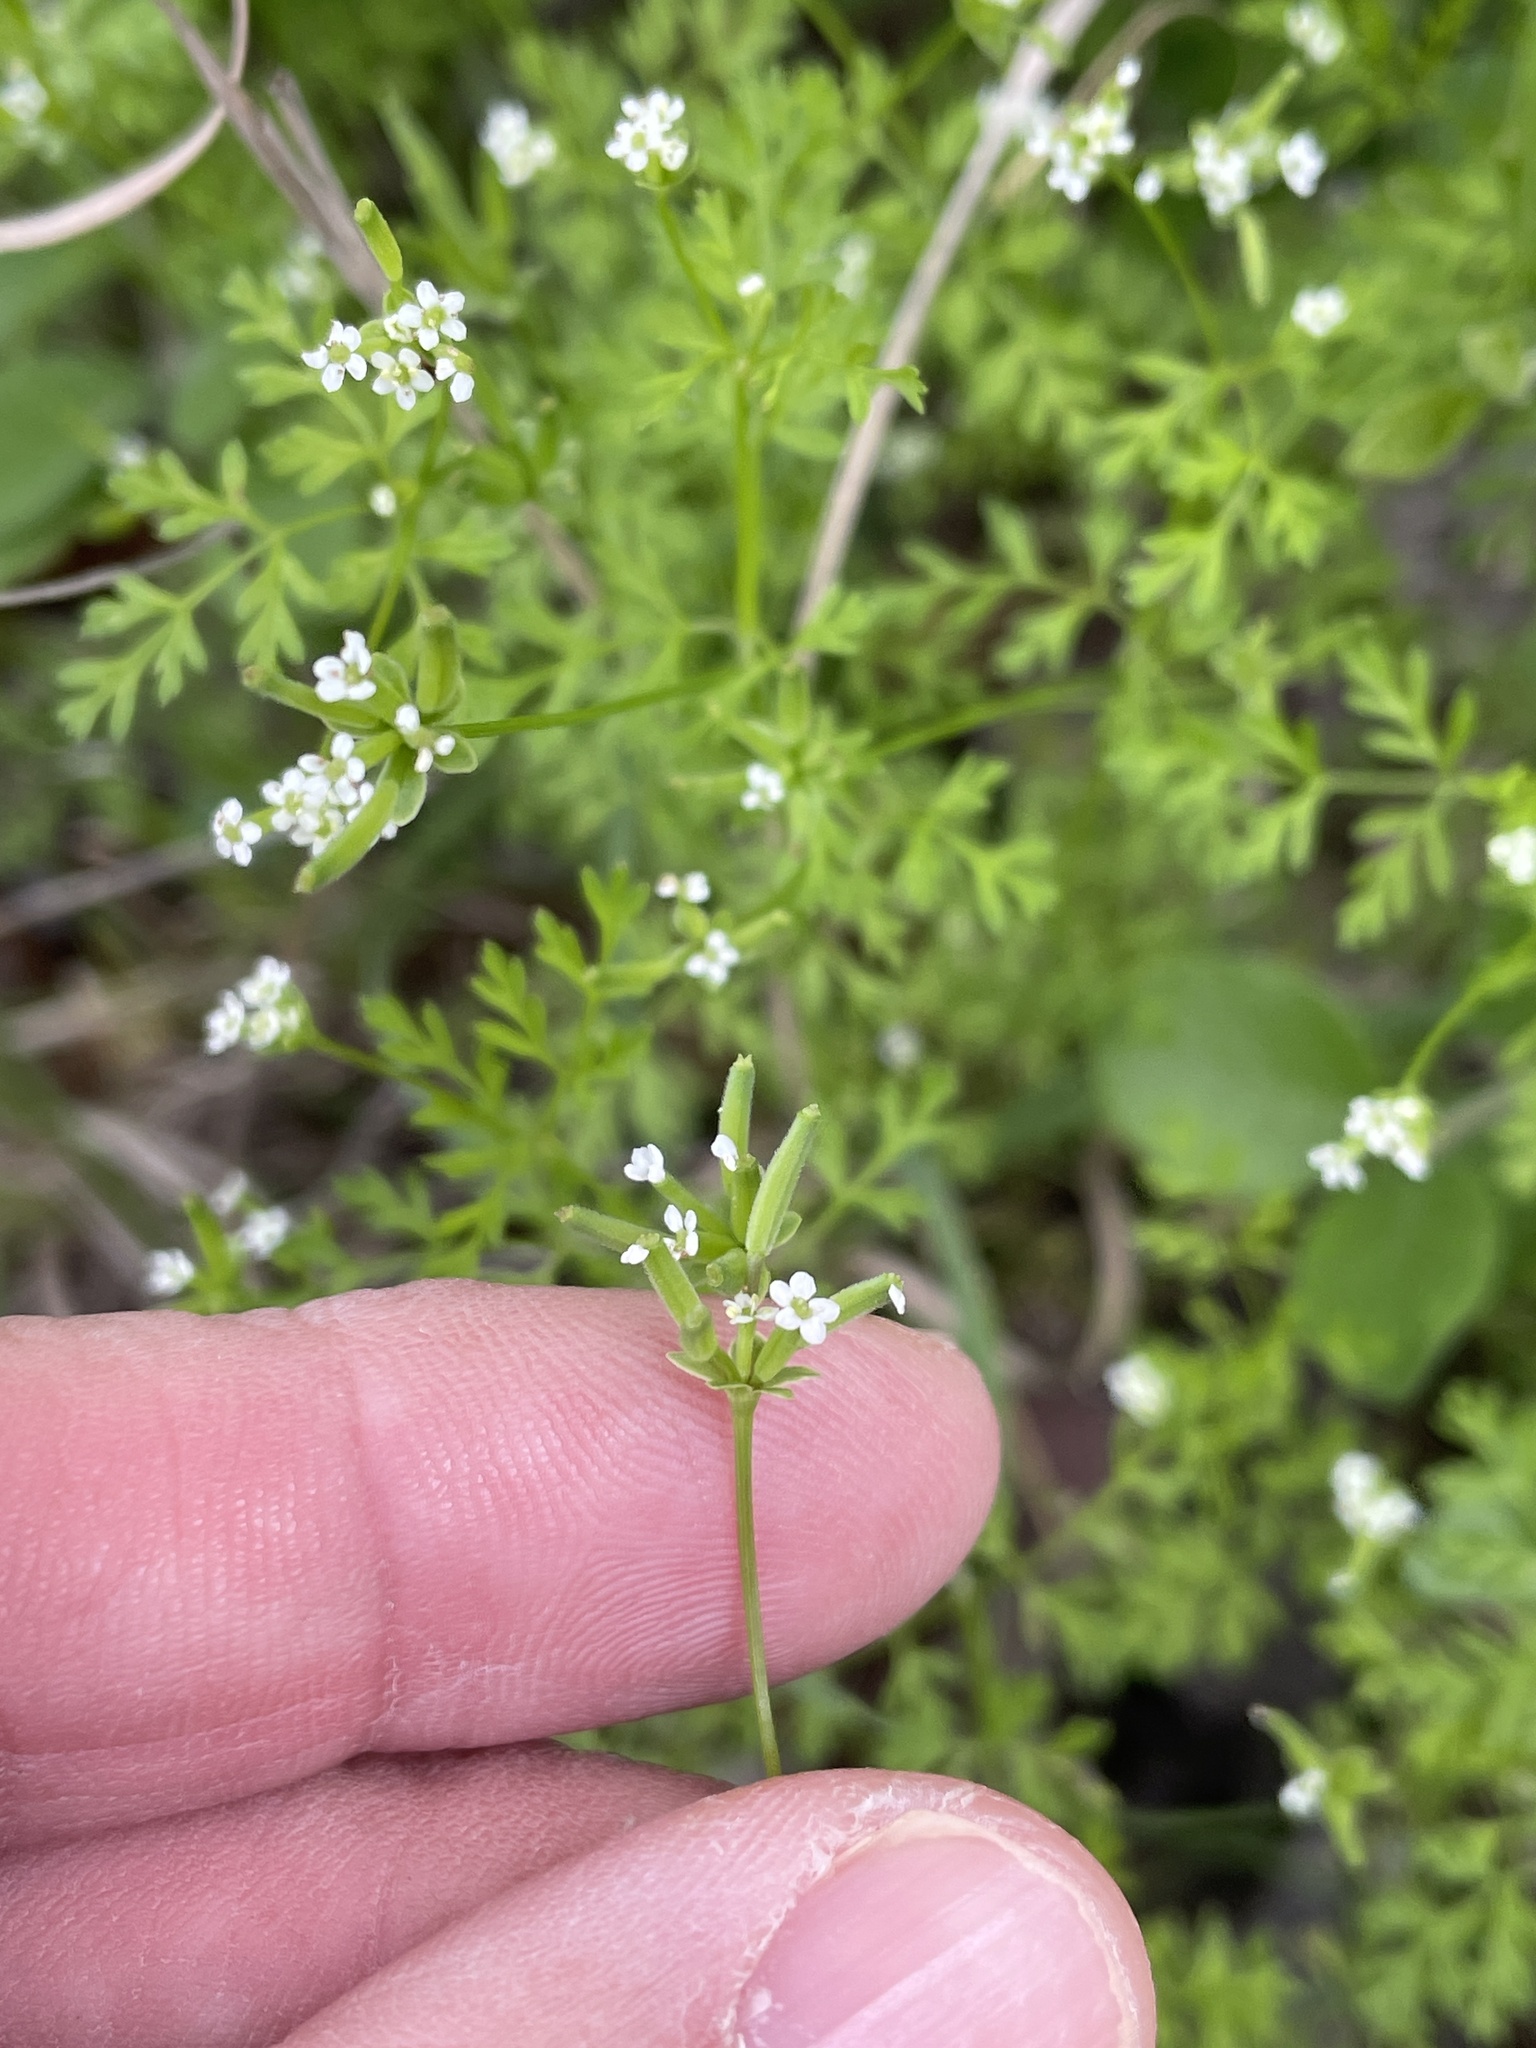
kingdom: Plantae
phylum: Tracheophyta
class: Magnoliopsida
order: Apiales
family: Apiaceae
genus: Chaerophyllum
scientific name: Chaerophyllum tainturieri
